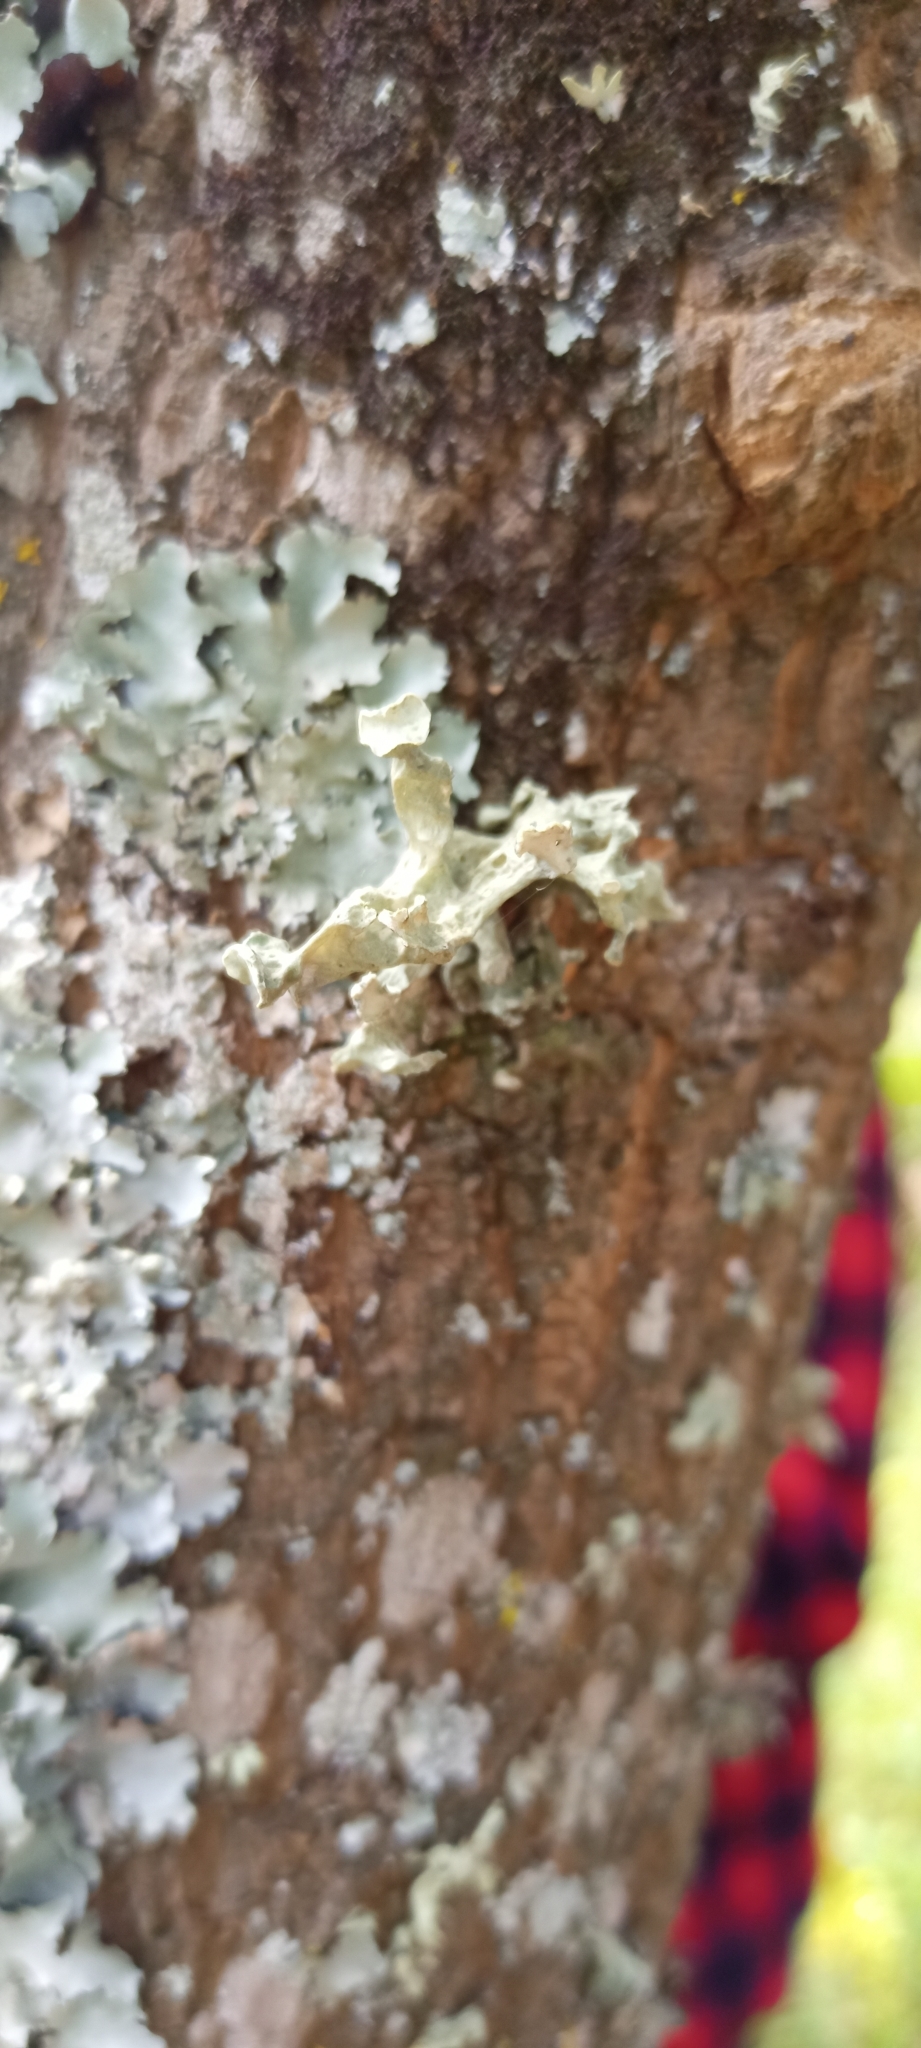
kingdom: Fungi
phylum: Ascomycota
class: Lecanoromycetes
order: Lecanorales
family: Ramalinaceae
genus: Ramalina
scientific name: Ramalina fastigiata
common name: Dotted ribbon lichen
